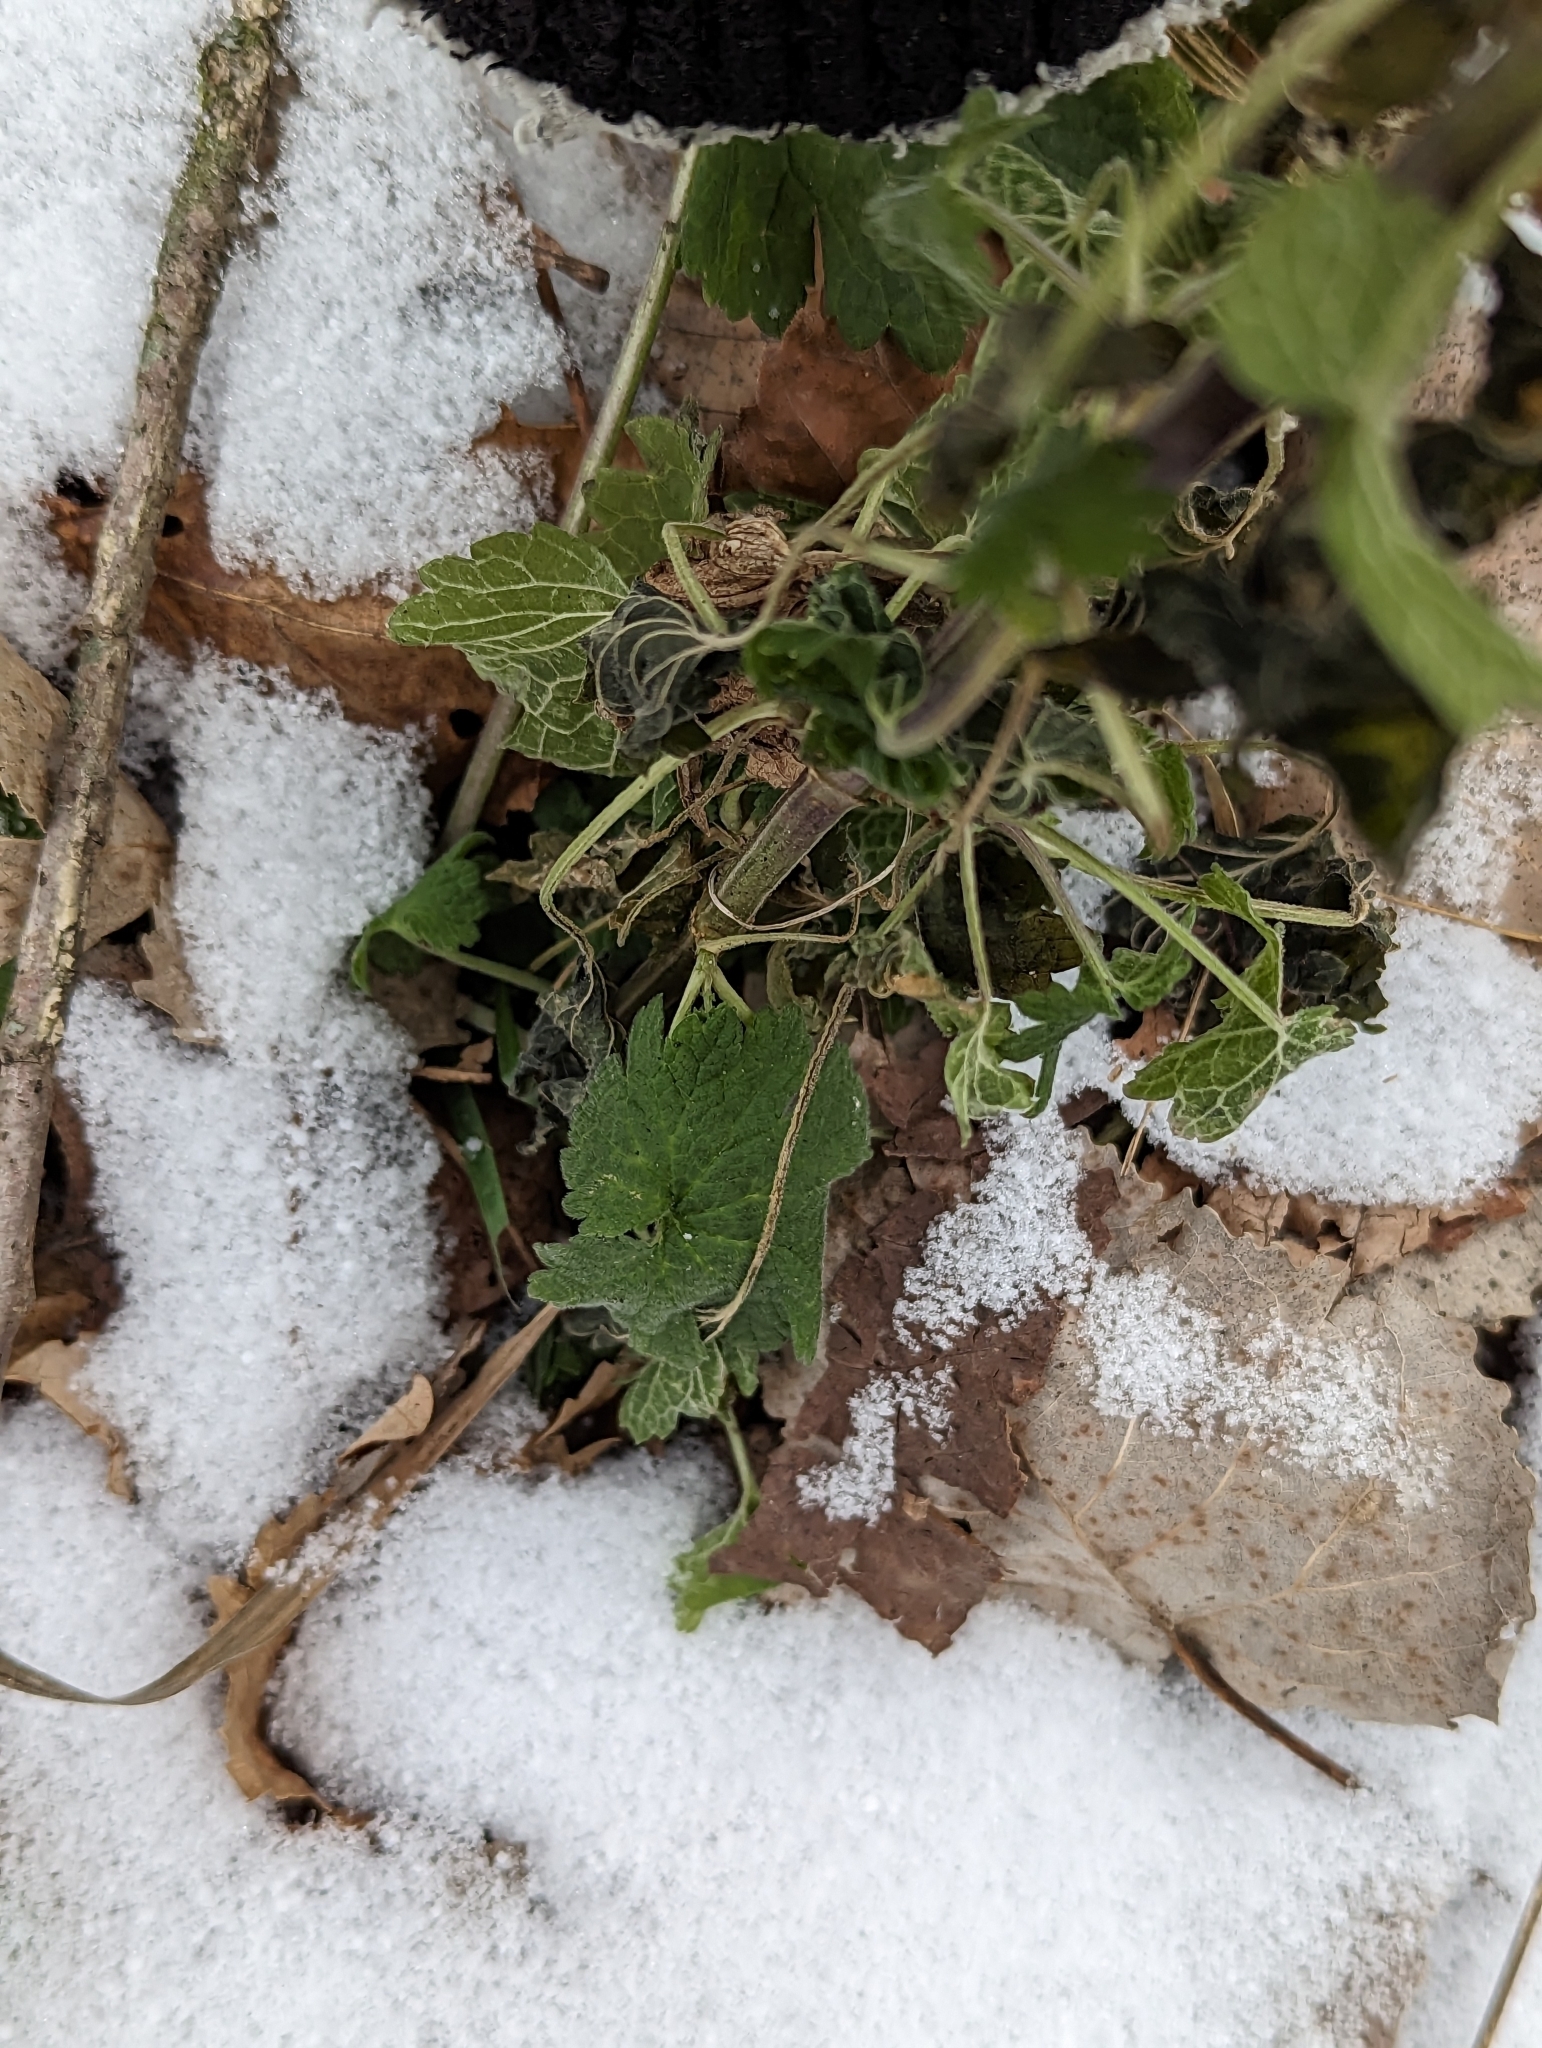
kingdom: Plantae
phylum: Tracheophyta
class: Magnoliopsida
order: Lamiales
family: Lamiaceae
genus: Leonurus
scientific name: Leonurus cardiaca
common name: Motherwort
